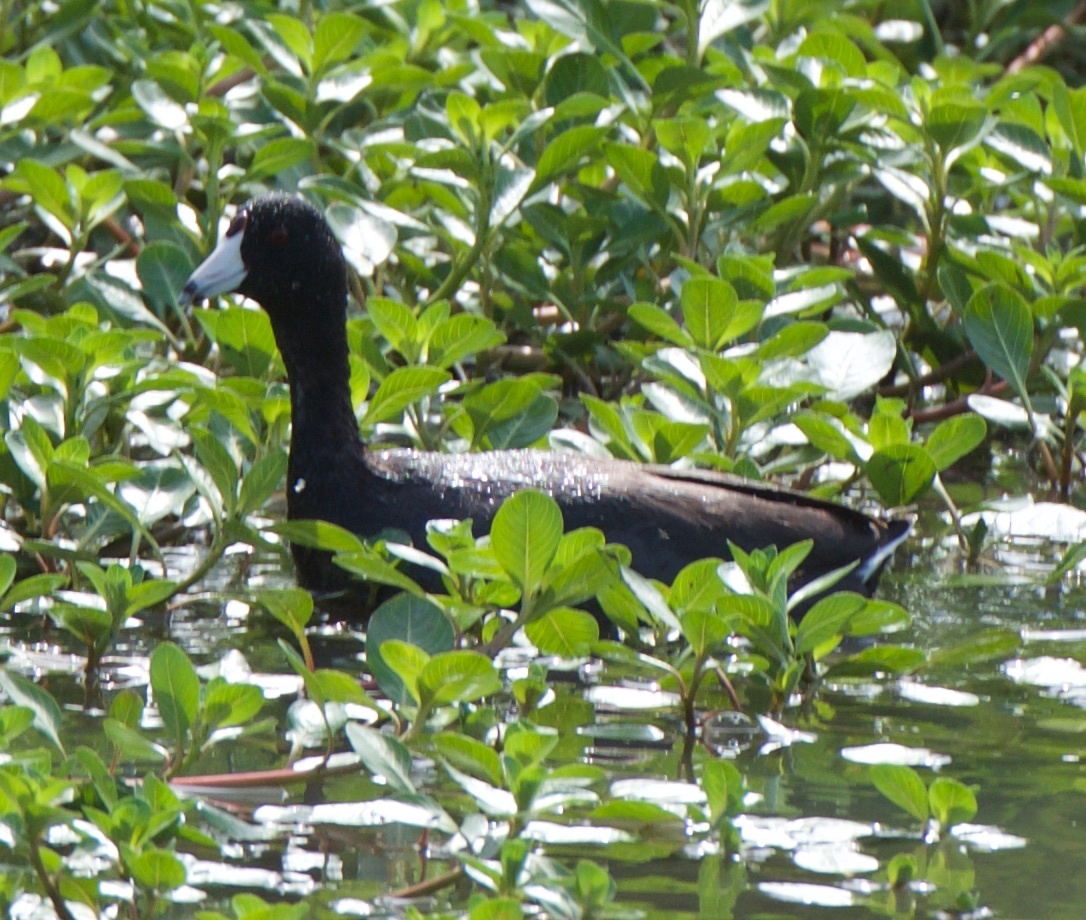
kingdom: Animalia
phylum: Chordata
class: Aves
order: Gruiformes
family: Rallidae
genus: Fulica
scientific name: Fulica americana
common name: American coot
